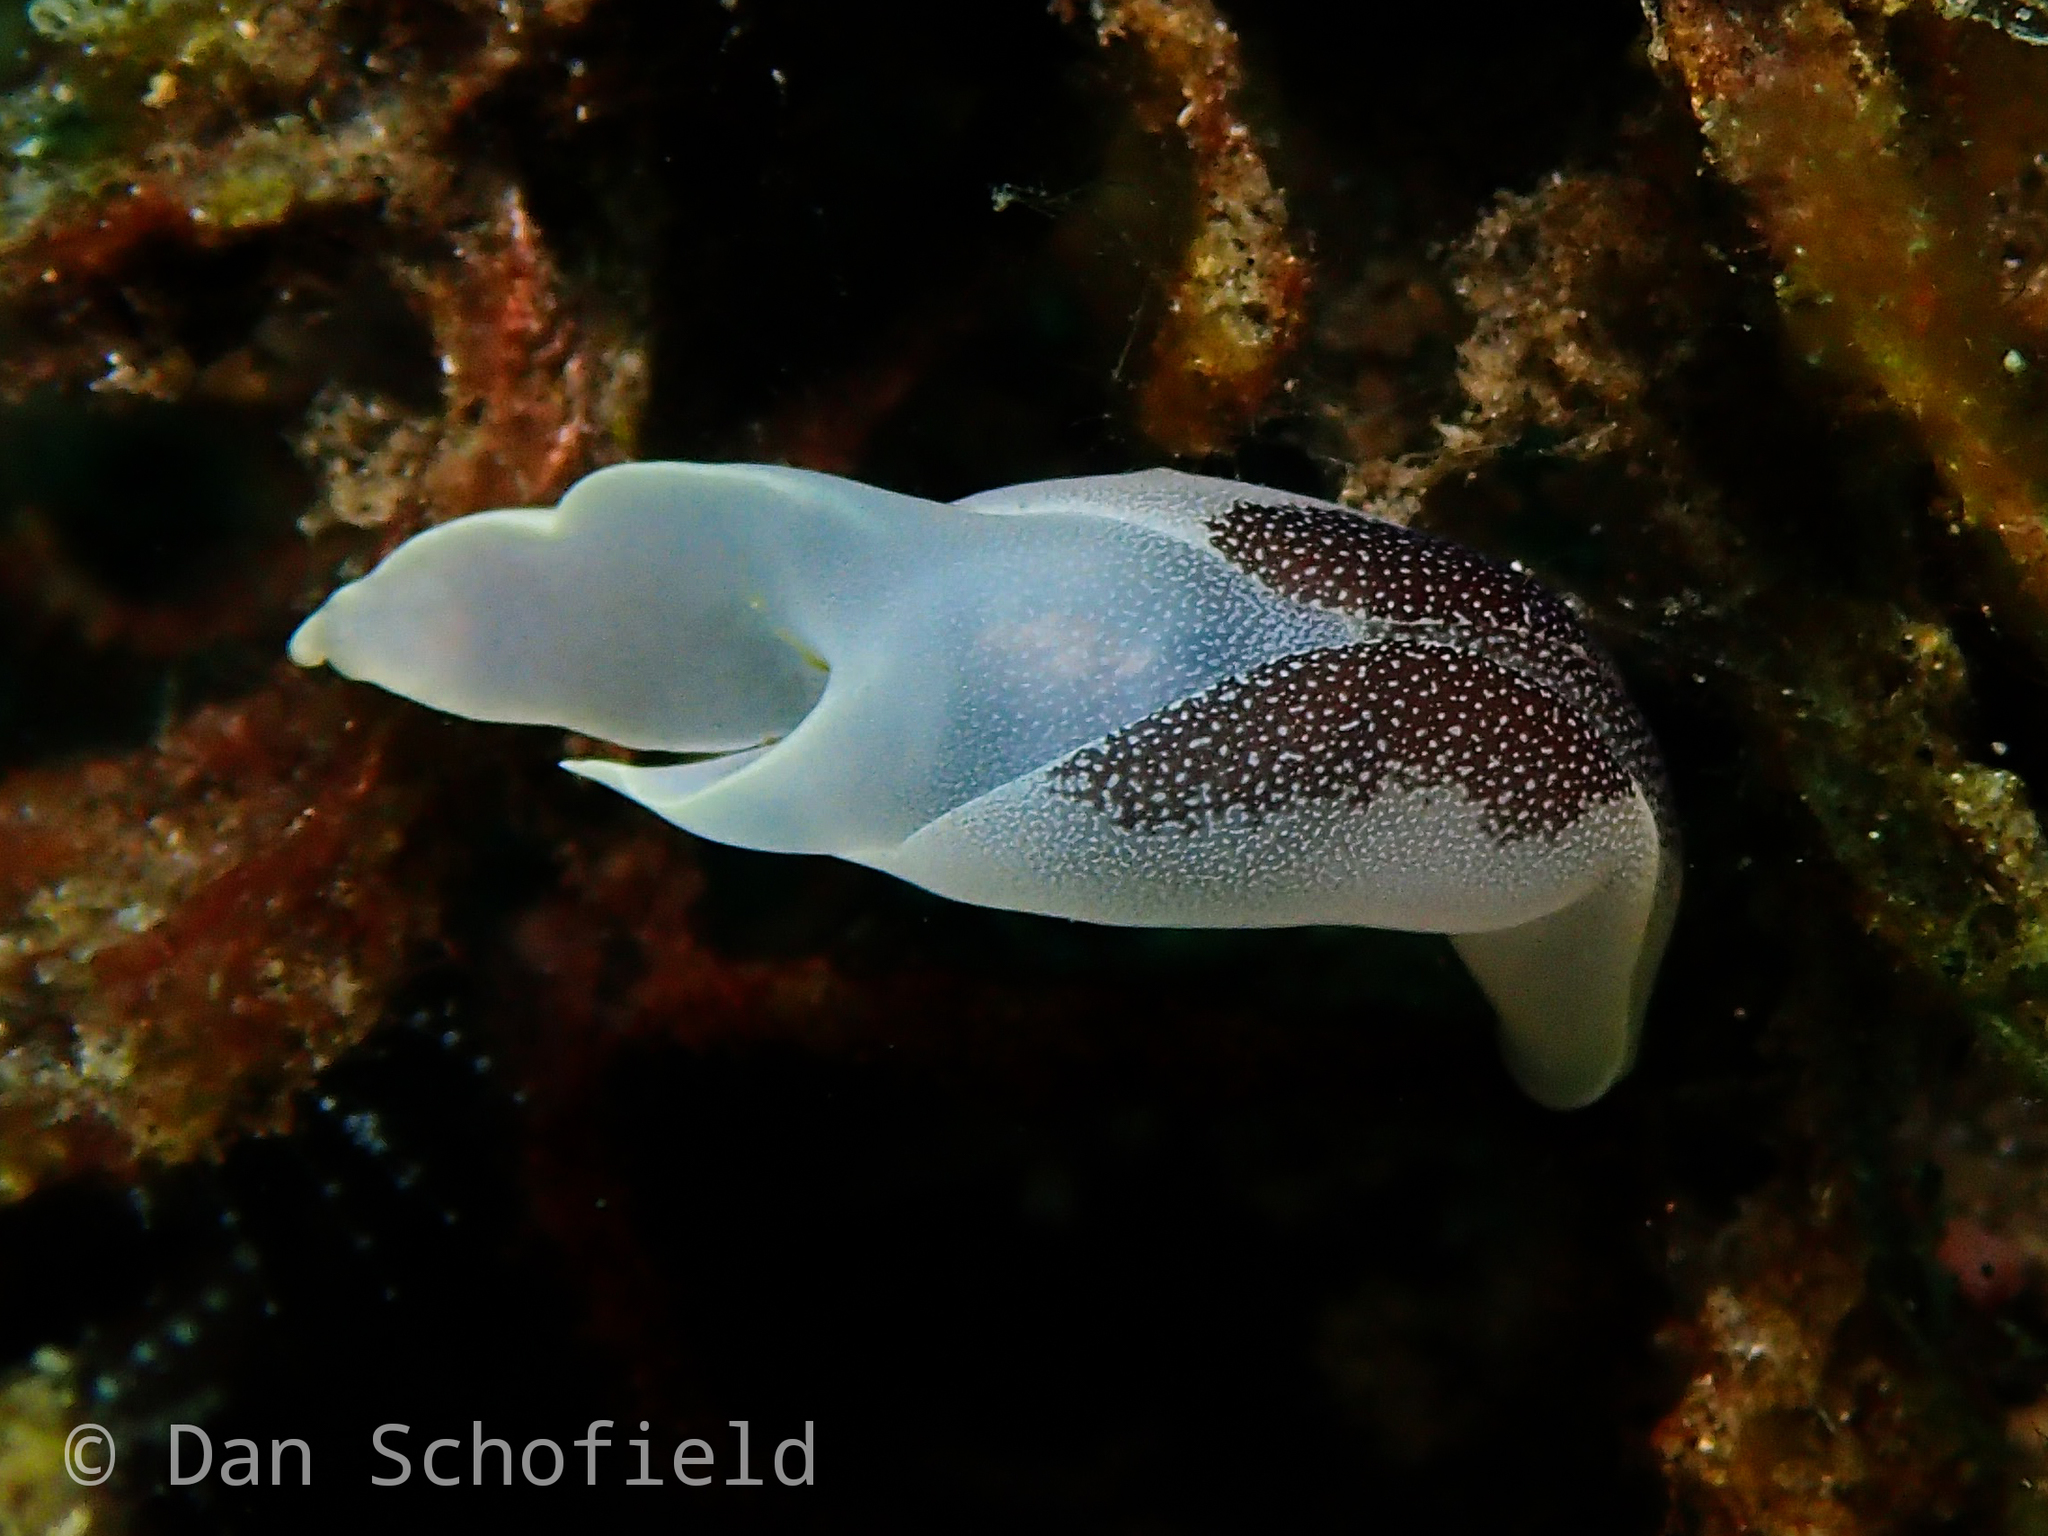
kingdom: Animalia
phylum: Mollusca
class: Gastropoda
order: Cephalaspidea
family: Aglajidae
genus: Chelidonura
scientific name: Chelidonura amoena
